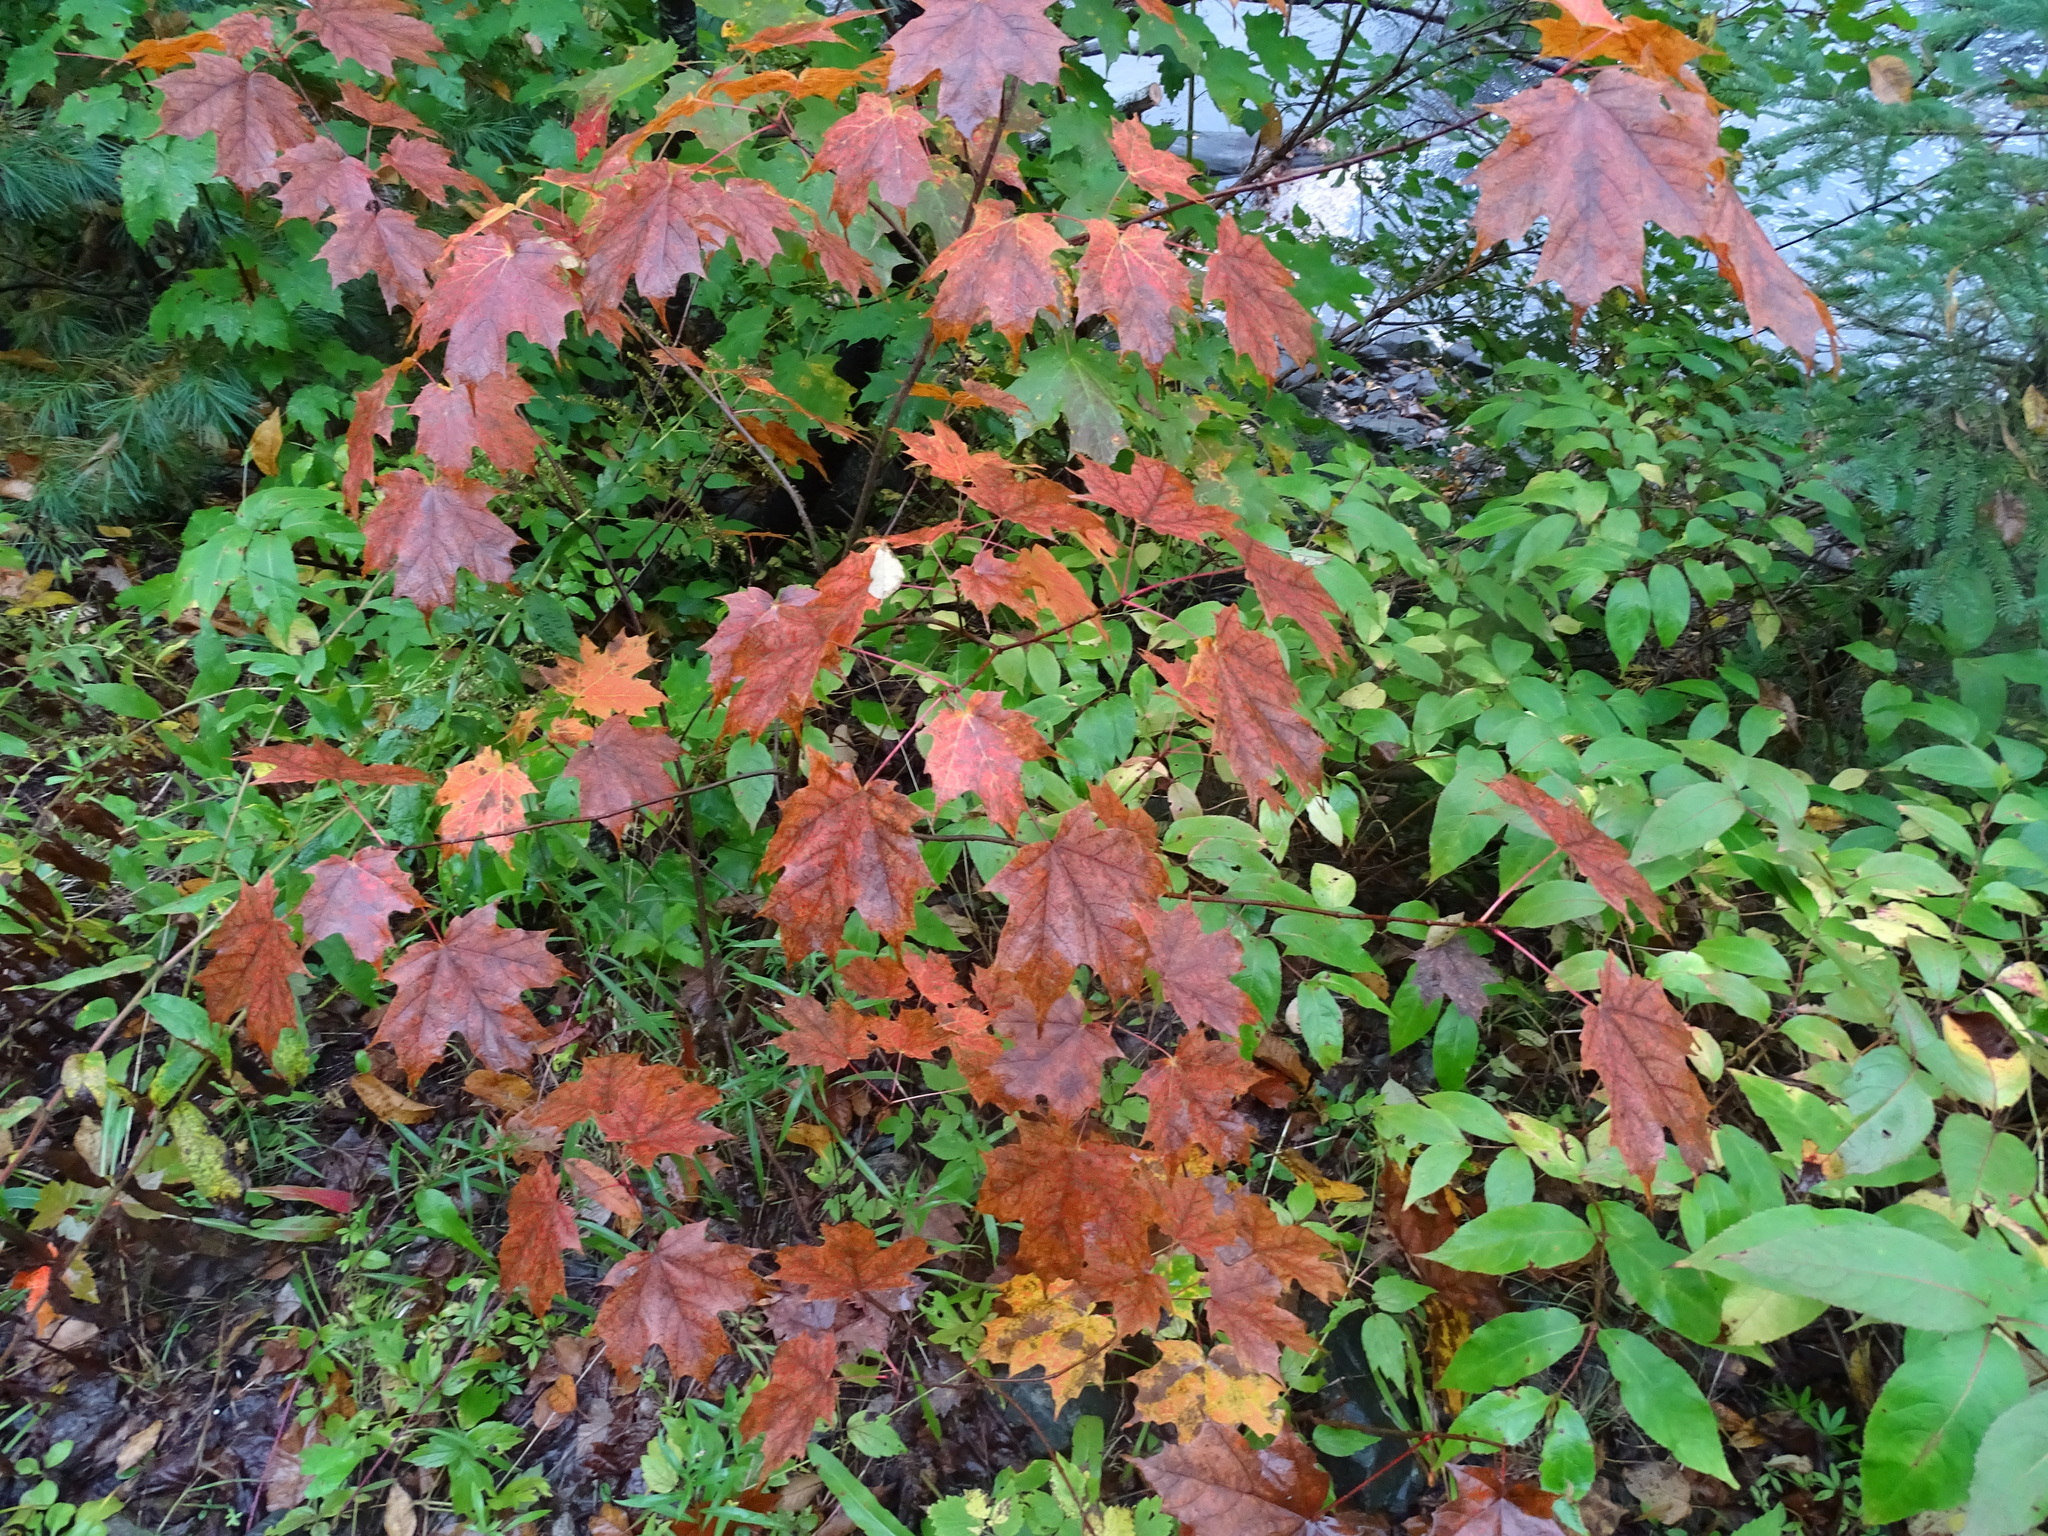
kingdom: Plantae
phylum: Tracheophyta
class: Magnoliopsida
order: Sapindales
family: Sapindaceae
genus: Acer
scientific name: Acer saccharum
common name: Sugar maple
